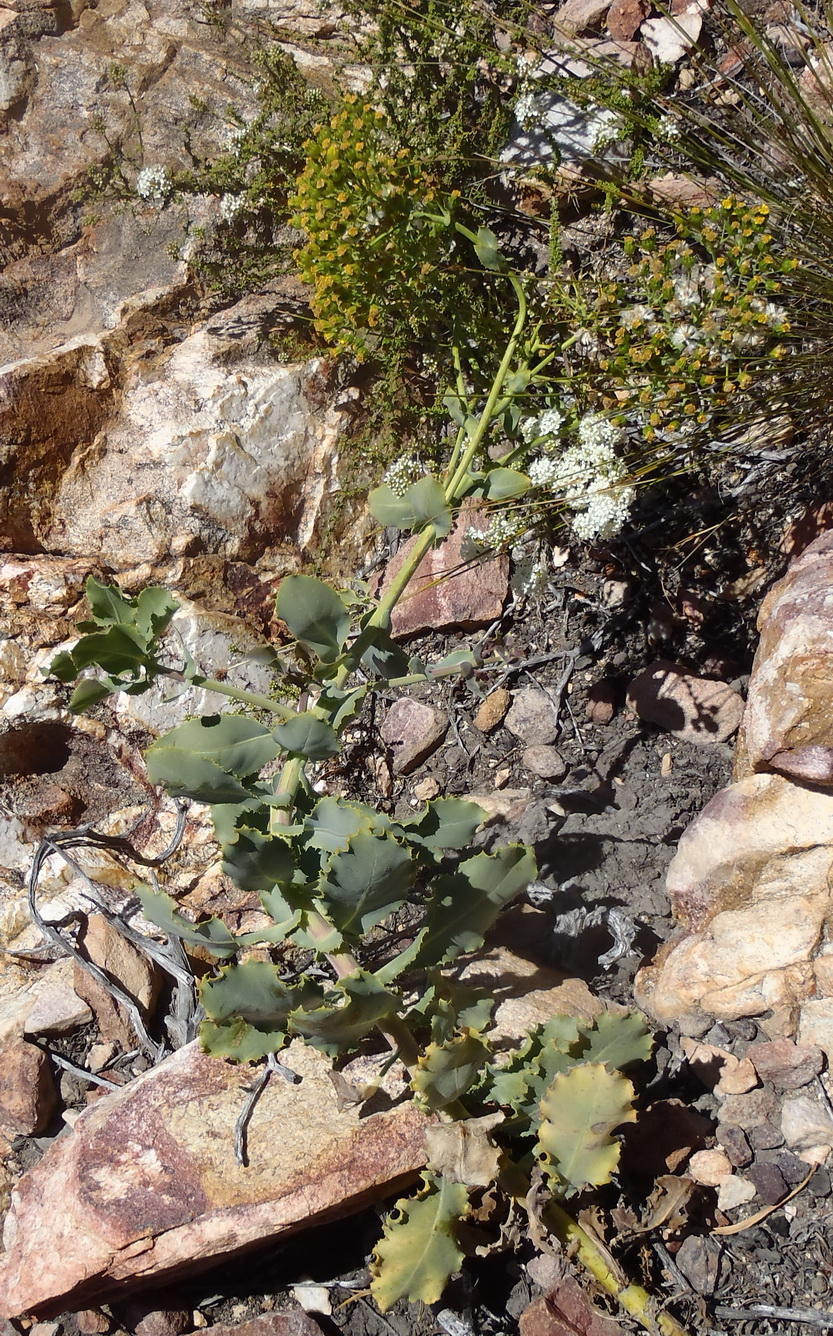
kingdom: Plantae
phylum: Tracheophyta
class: Magnoliopsida
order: Asterales
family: Asteraceae
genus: Othonna
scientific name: Othonna parviflora
